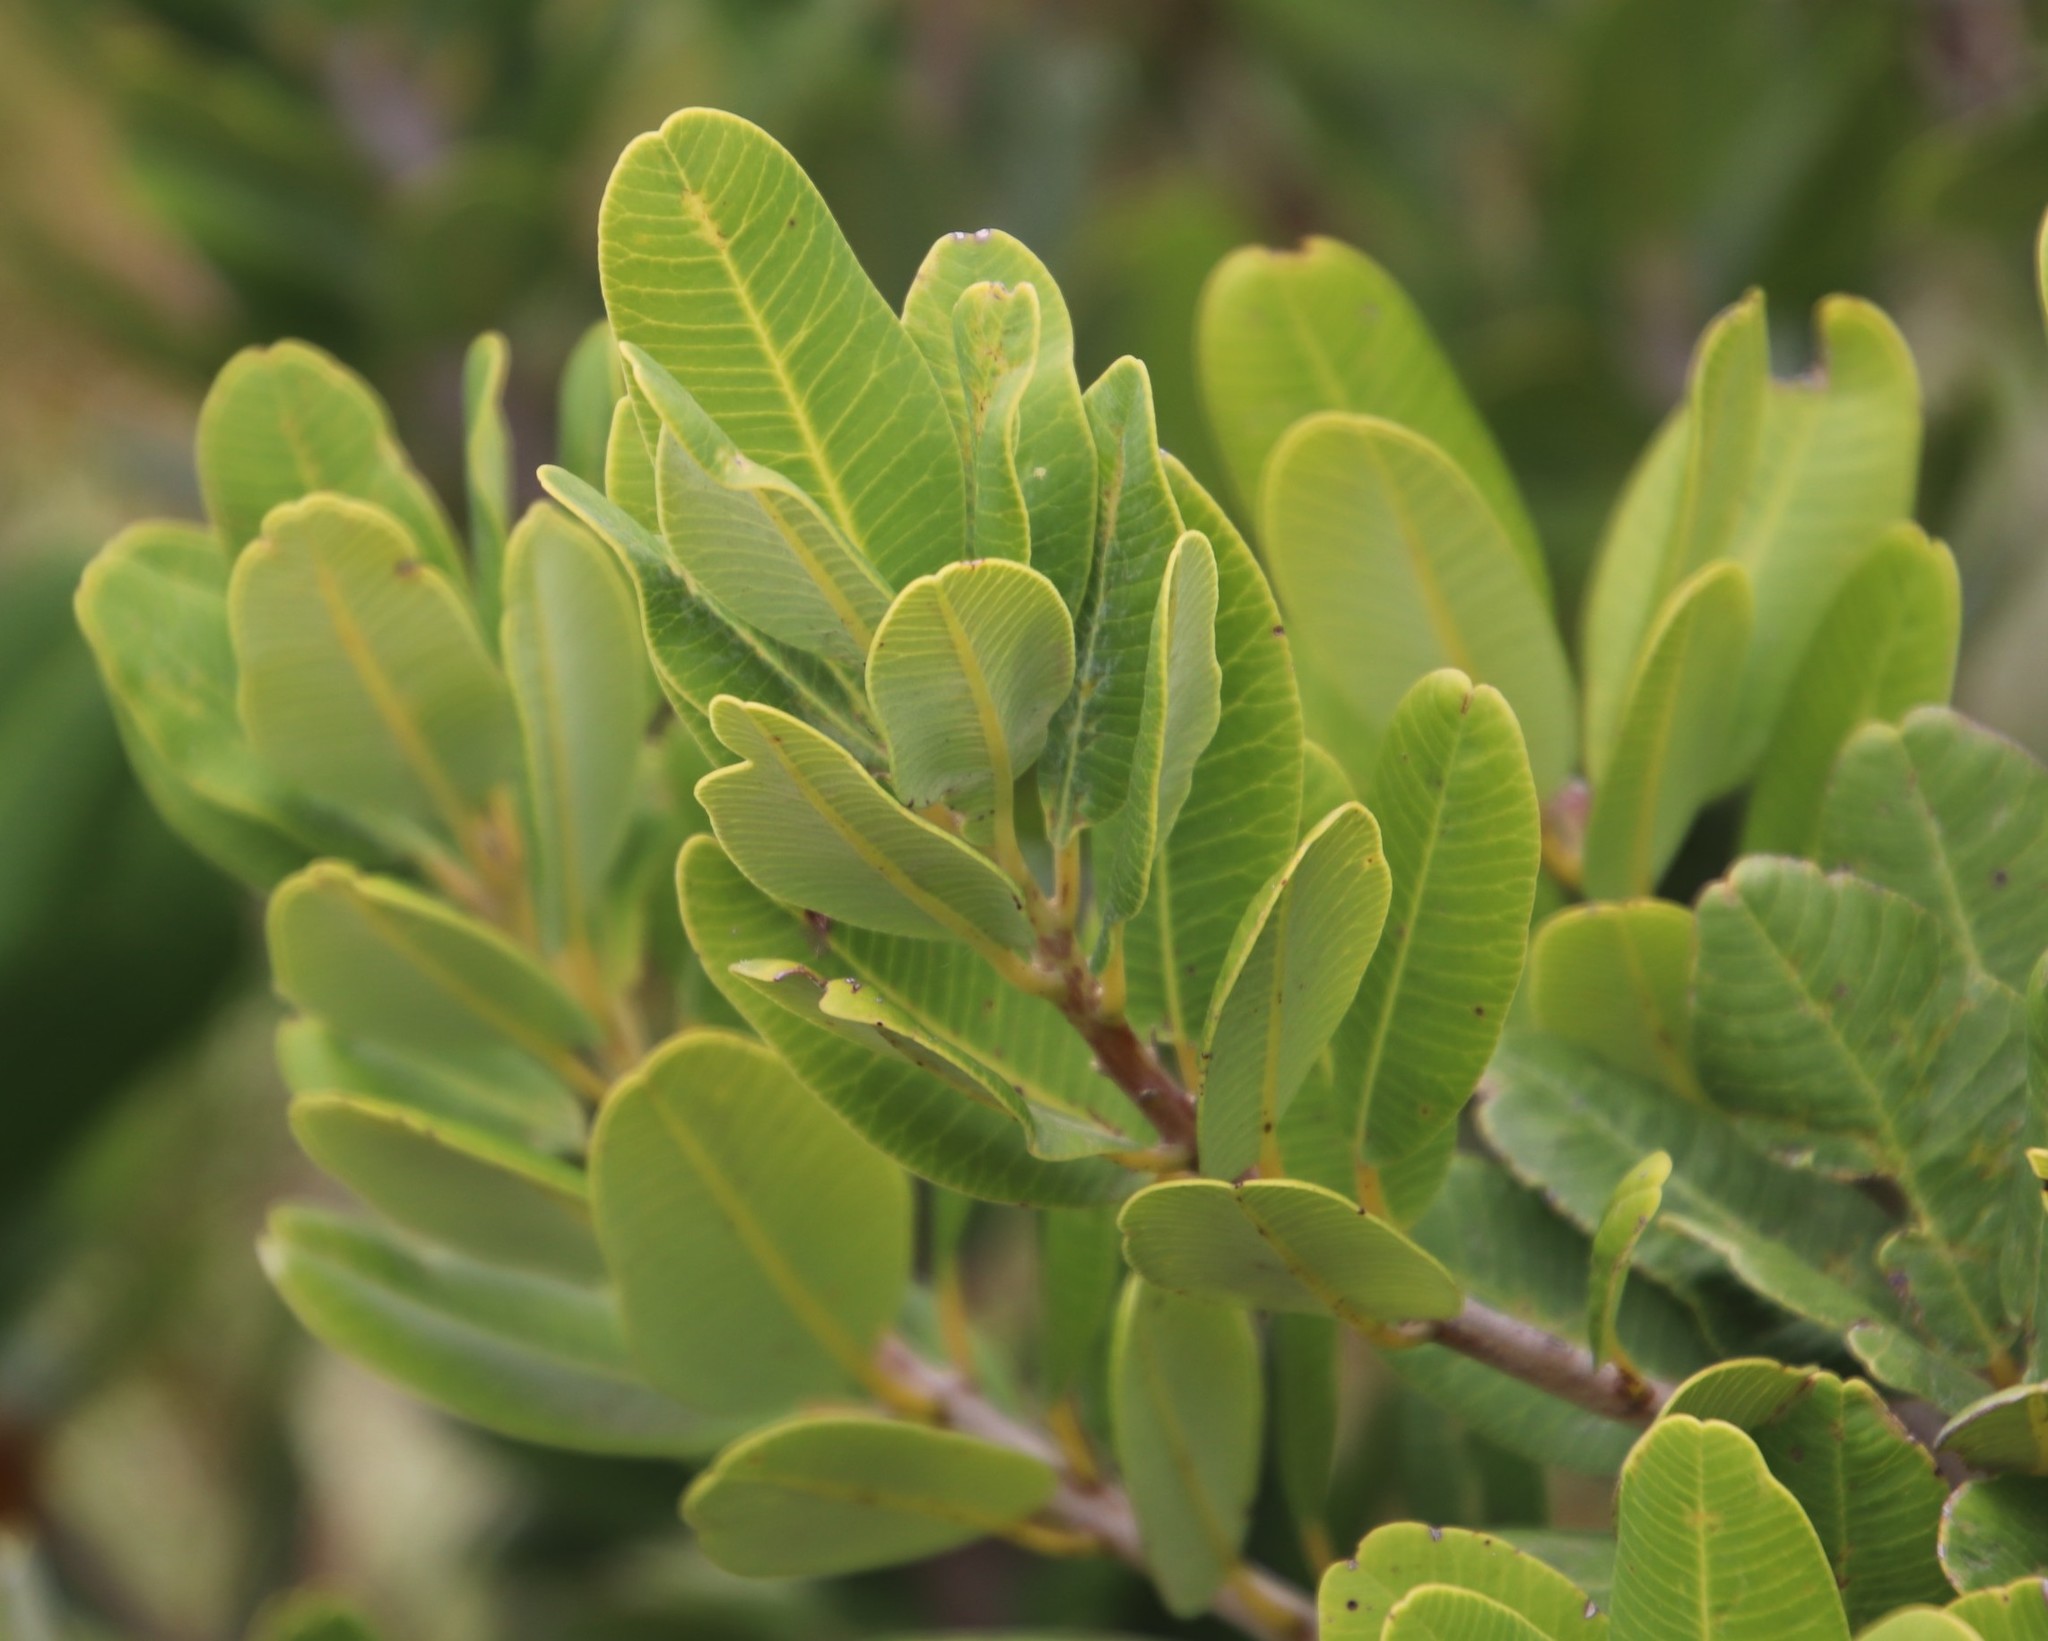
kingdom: Plantae
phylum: Tracheophyta
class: Magnoliopsida
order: Sapindales
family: Anacardiaceae
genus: Heeria
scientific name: Heeria argentea
